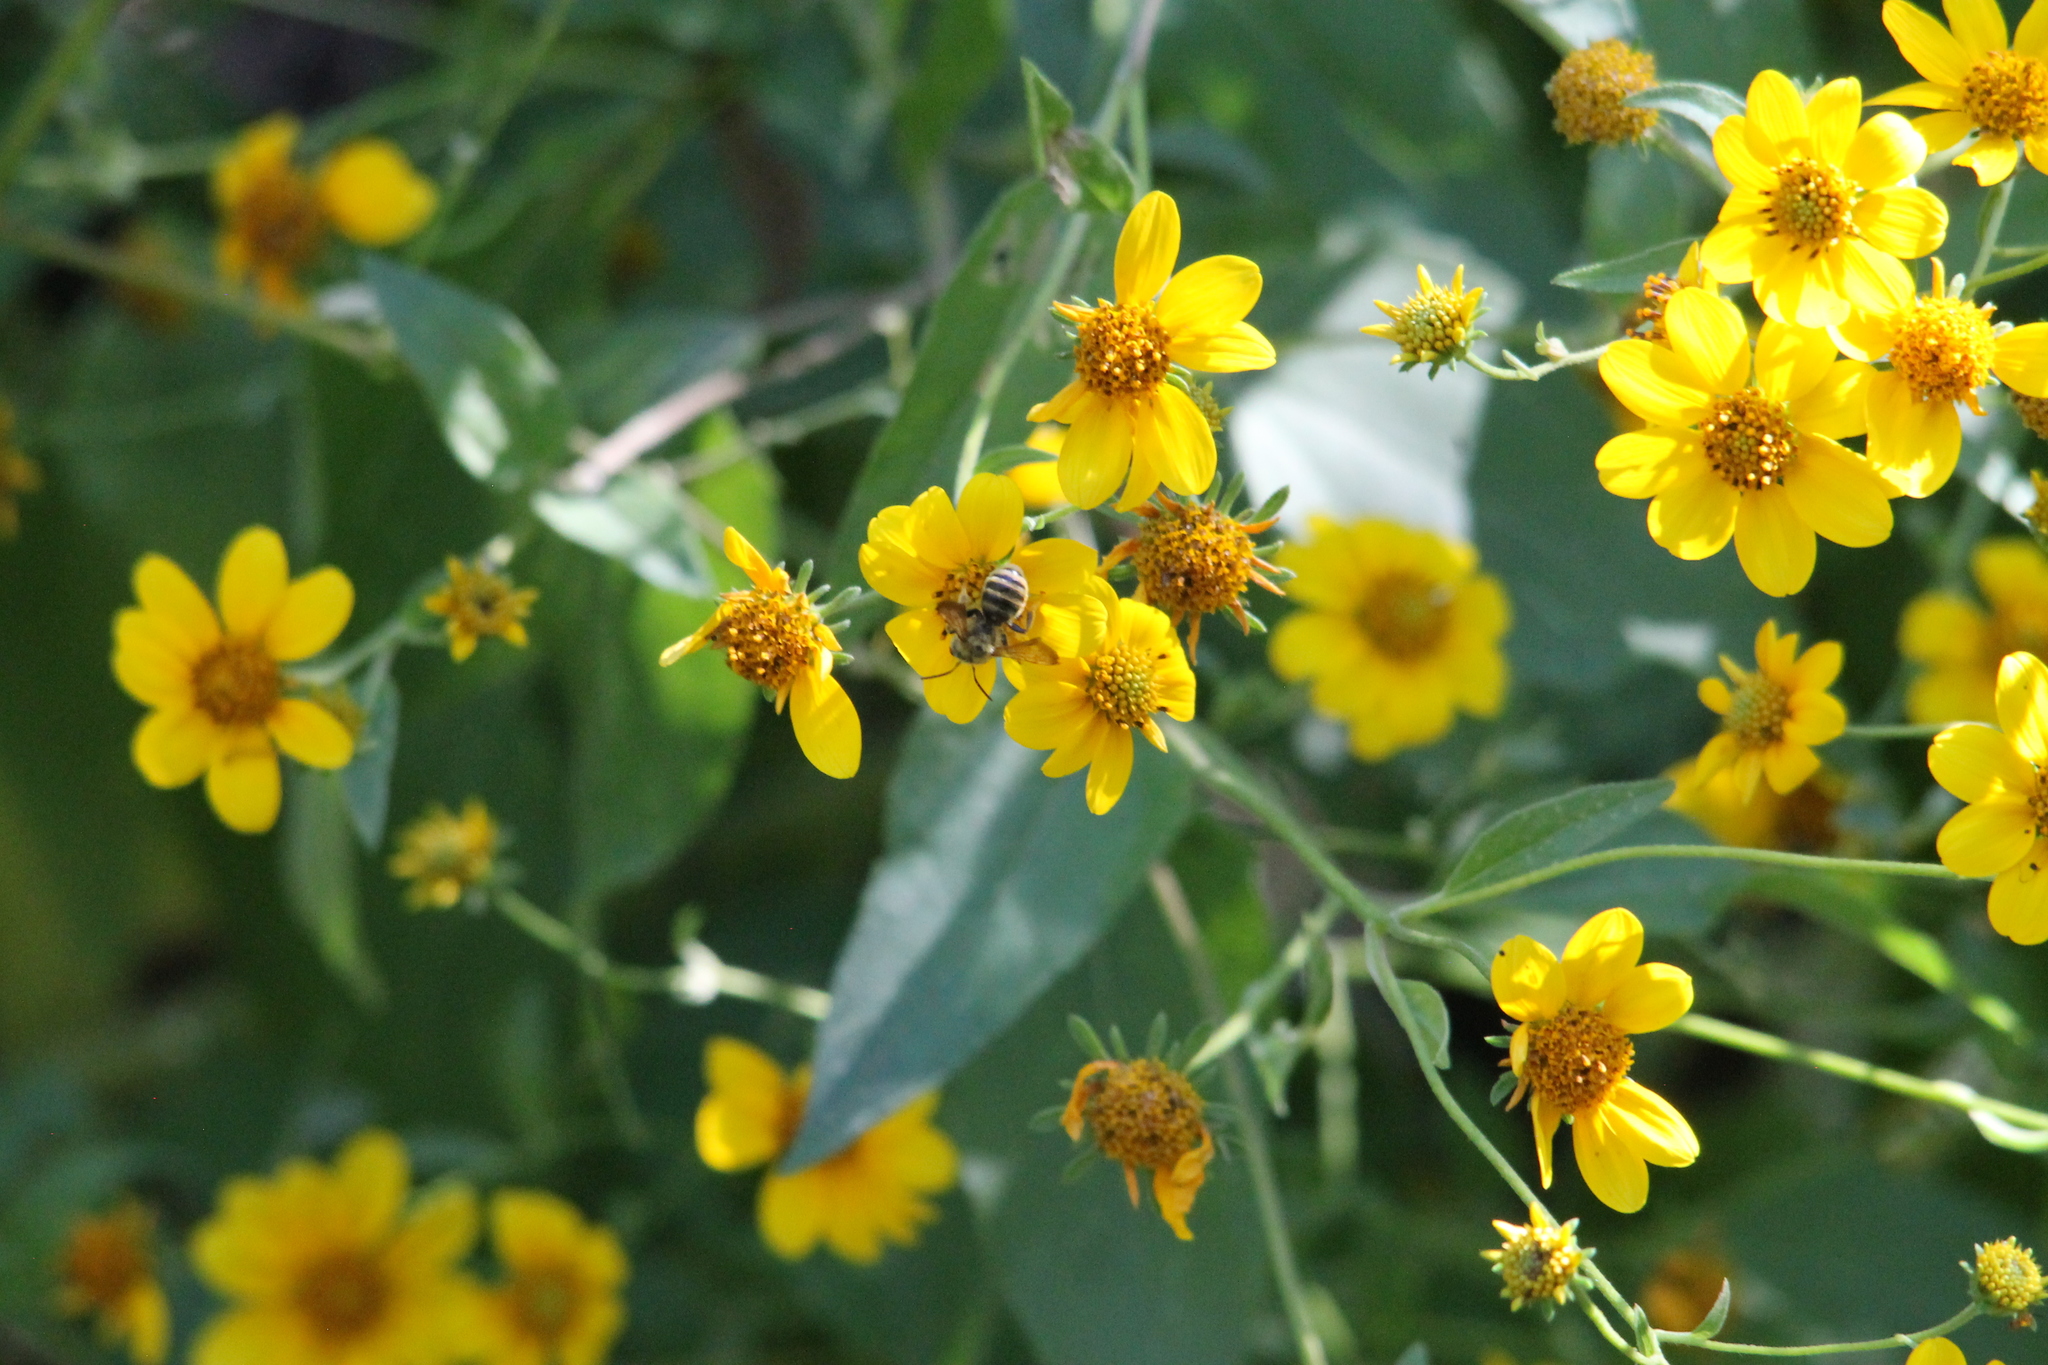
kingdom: Plantae
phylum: Tracheophyta
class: Magnoliopsida
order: Asterales
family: Asteraceae
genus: Viguiera
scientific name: Viguiera dentata
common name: Toothleaf
